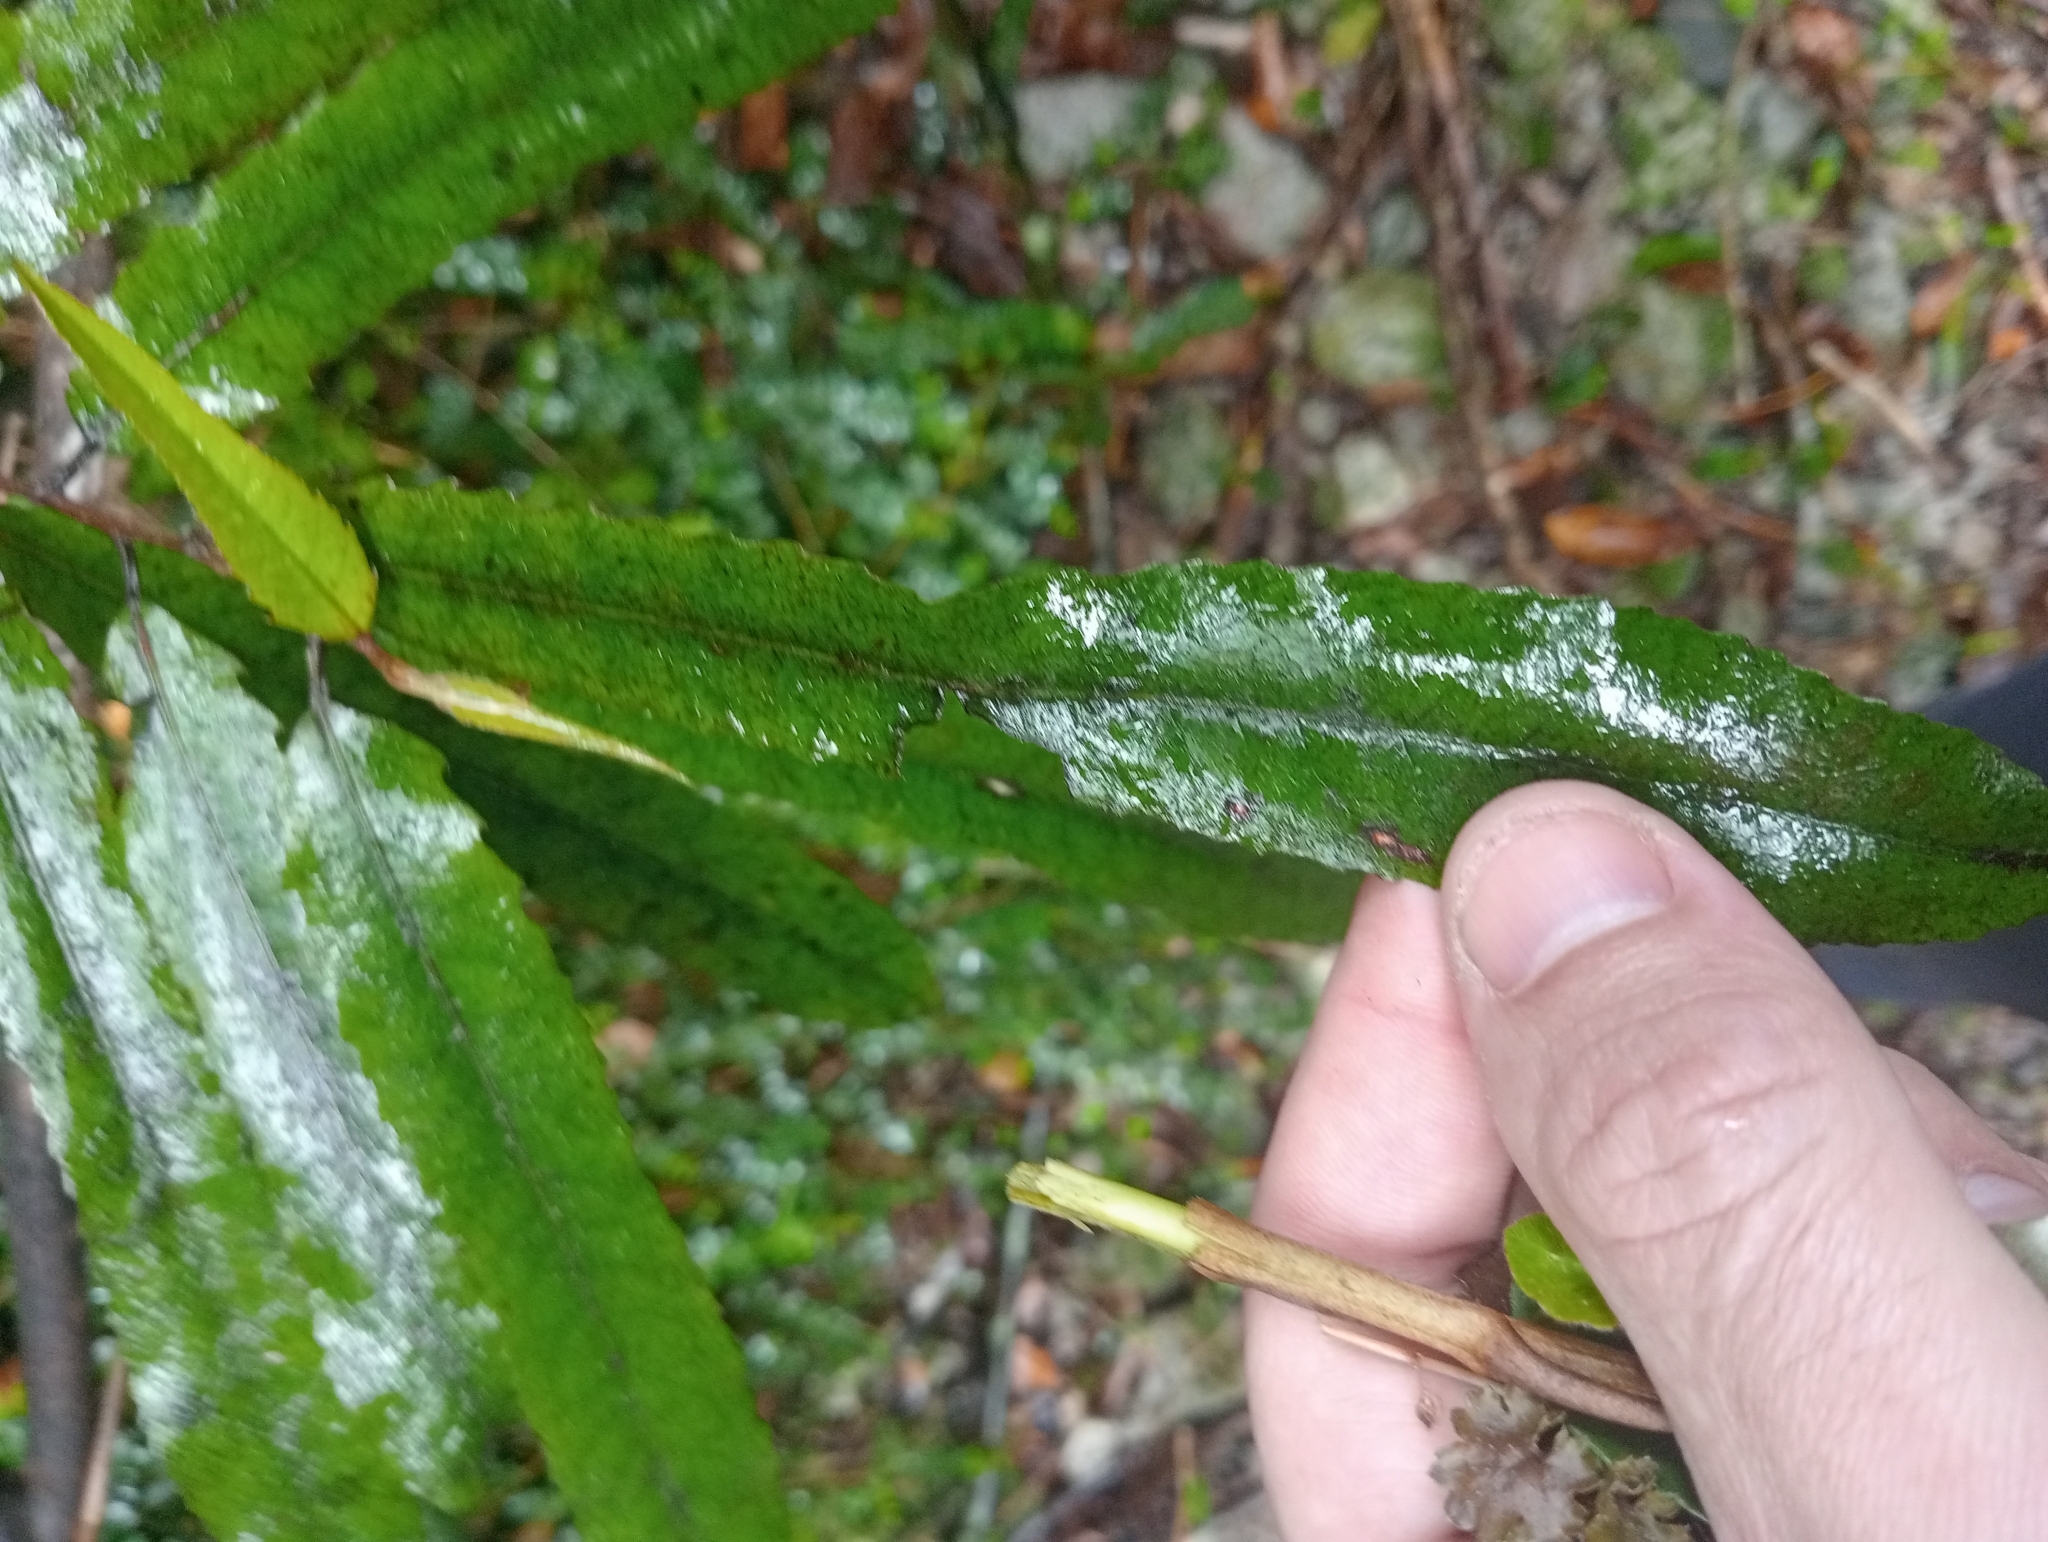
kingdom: Plantae
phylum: Tracheophyta
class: Magnoliopsida
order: Oxalidales
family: Elaeocarpaceae
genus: Elaeocarpus
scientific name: Elaeocarpus dentatus
